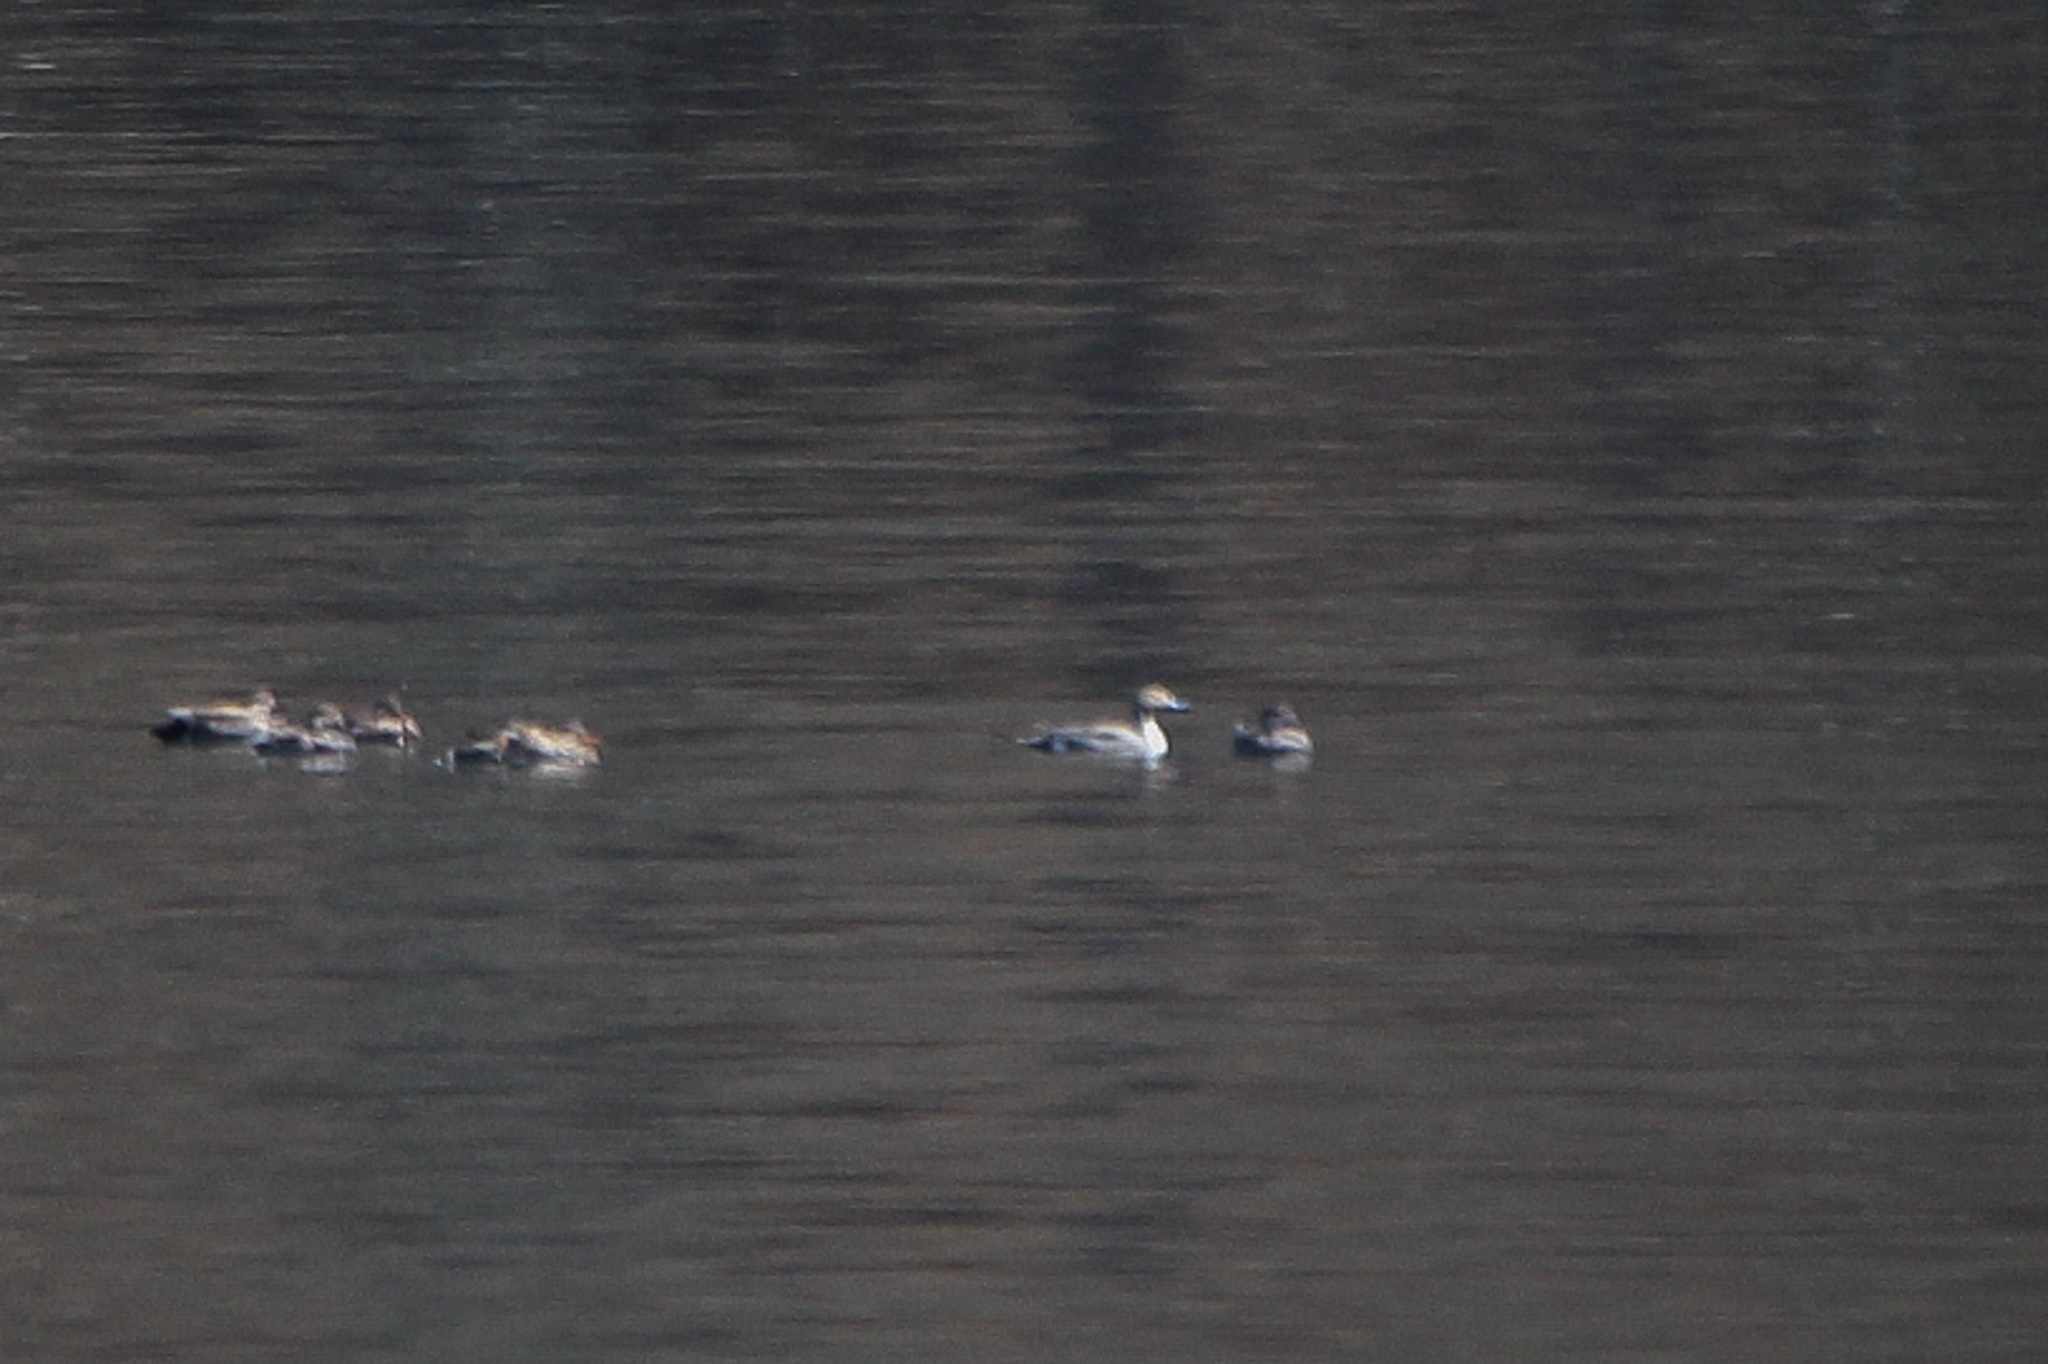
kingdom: Animalia
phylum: Chordata
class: Aves
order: Anseriformes
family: Anatidae
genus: Anas
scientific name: Anas acuta
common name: Northern pintail
